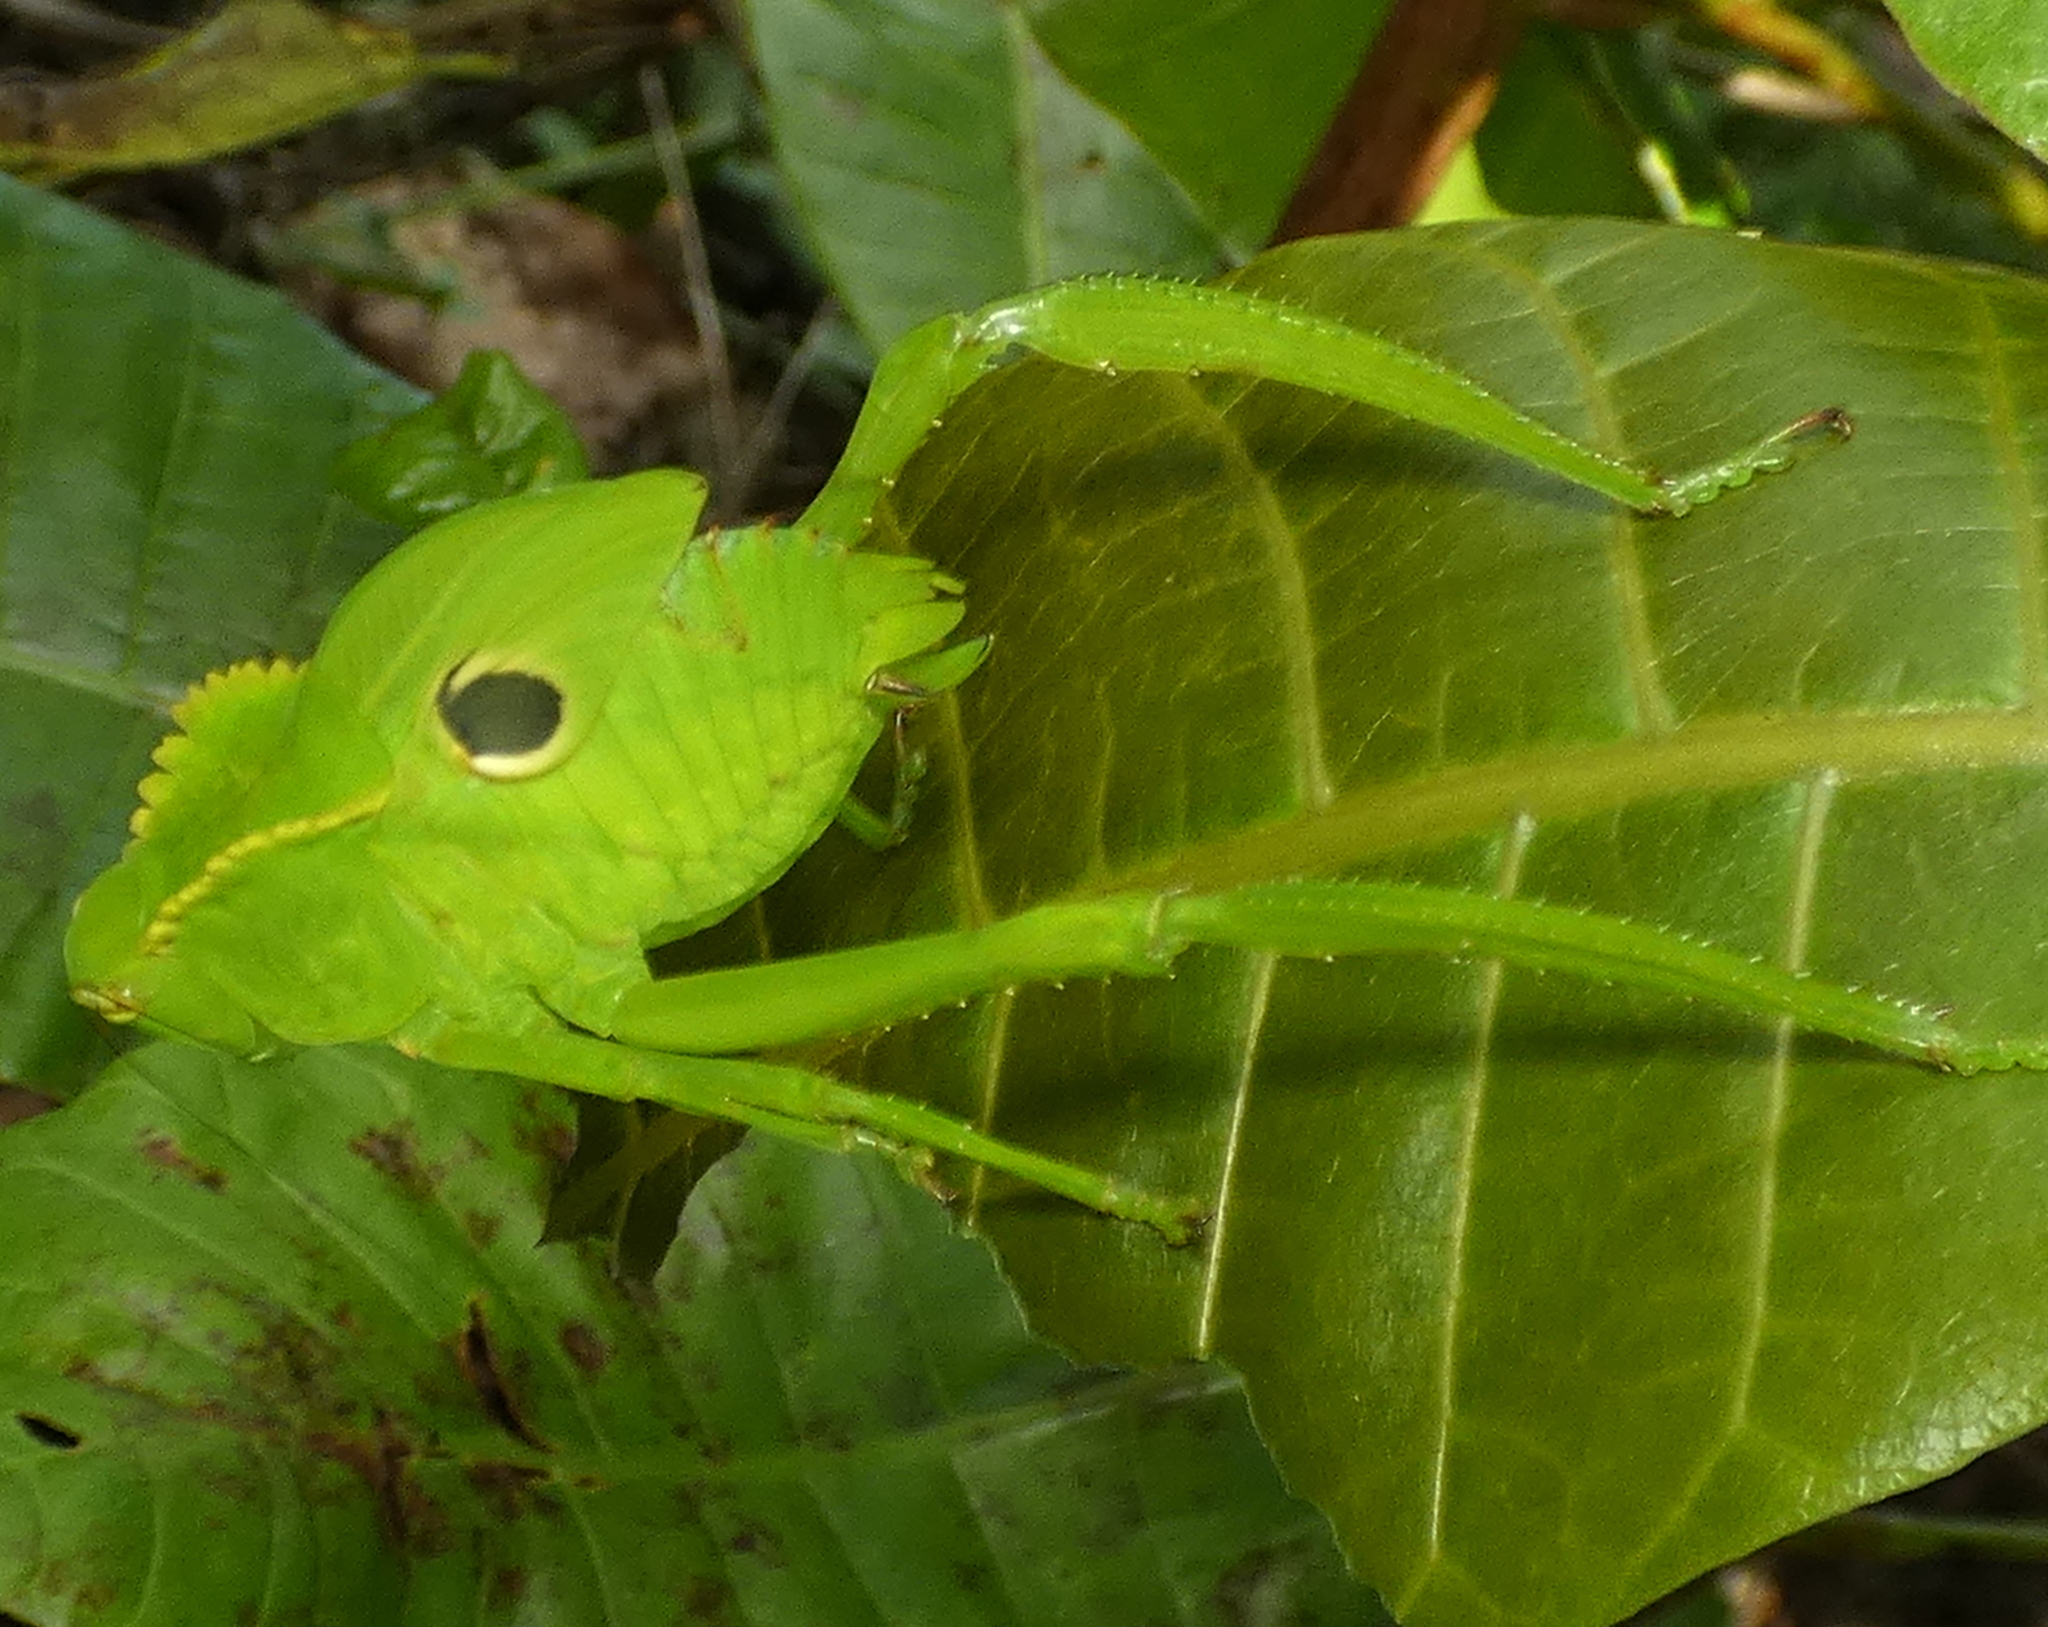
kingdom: Animalia
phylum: Arthropoda
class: Insecta
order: Orthoptera
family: Tettigoniidae
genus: Cnemidophyllum
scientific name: Cnemidophyllum citrifolium
